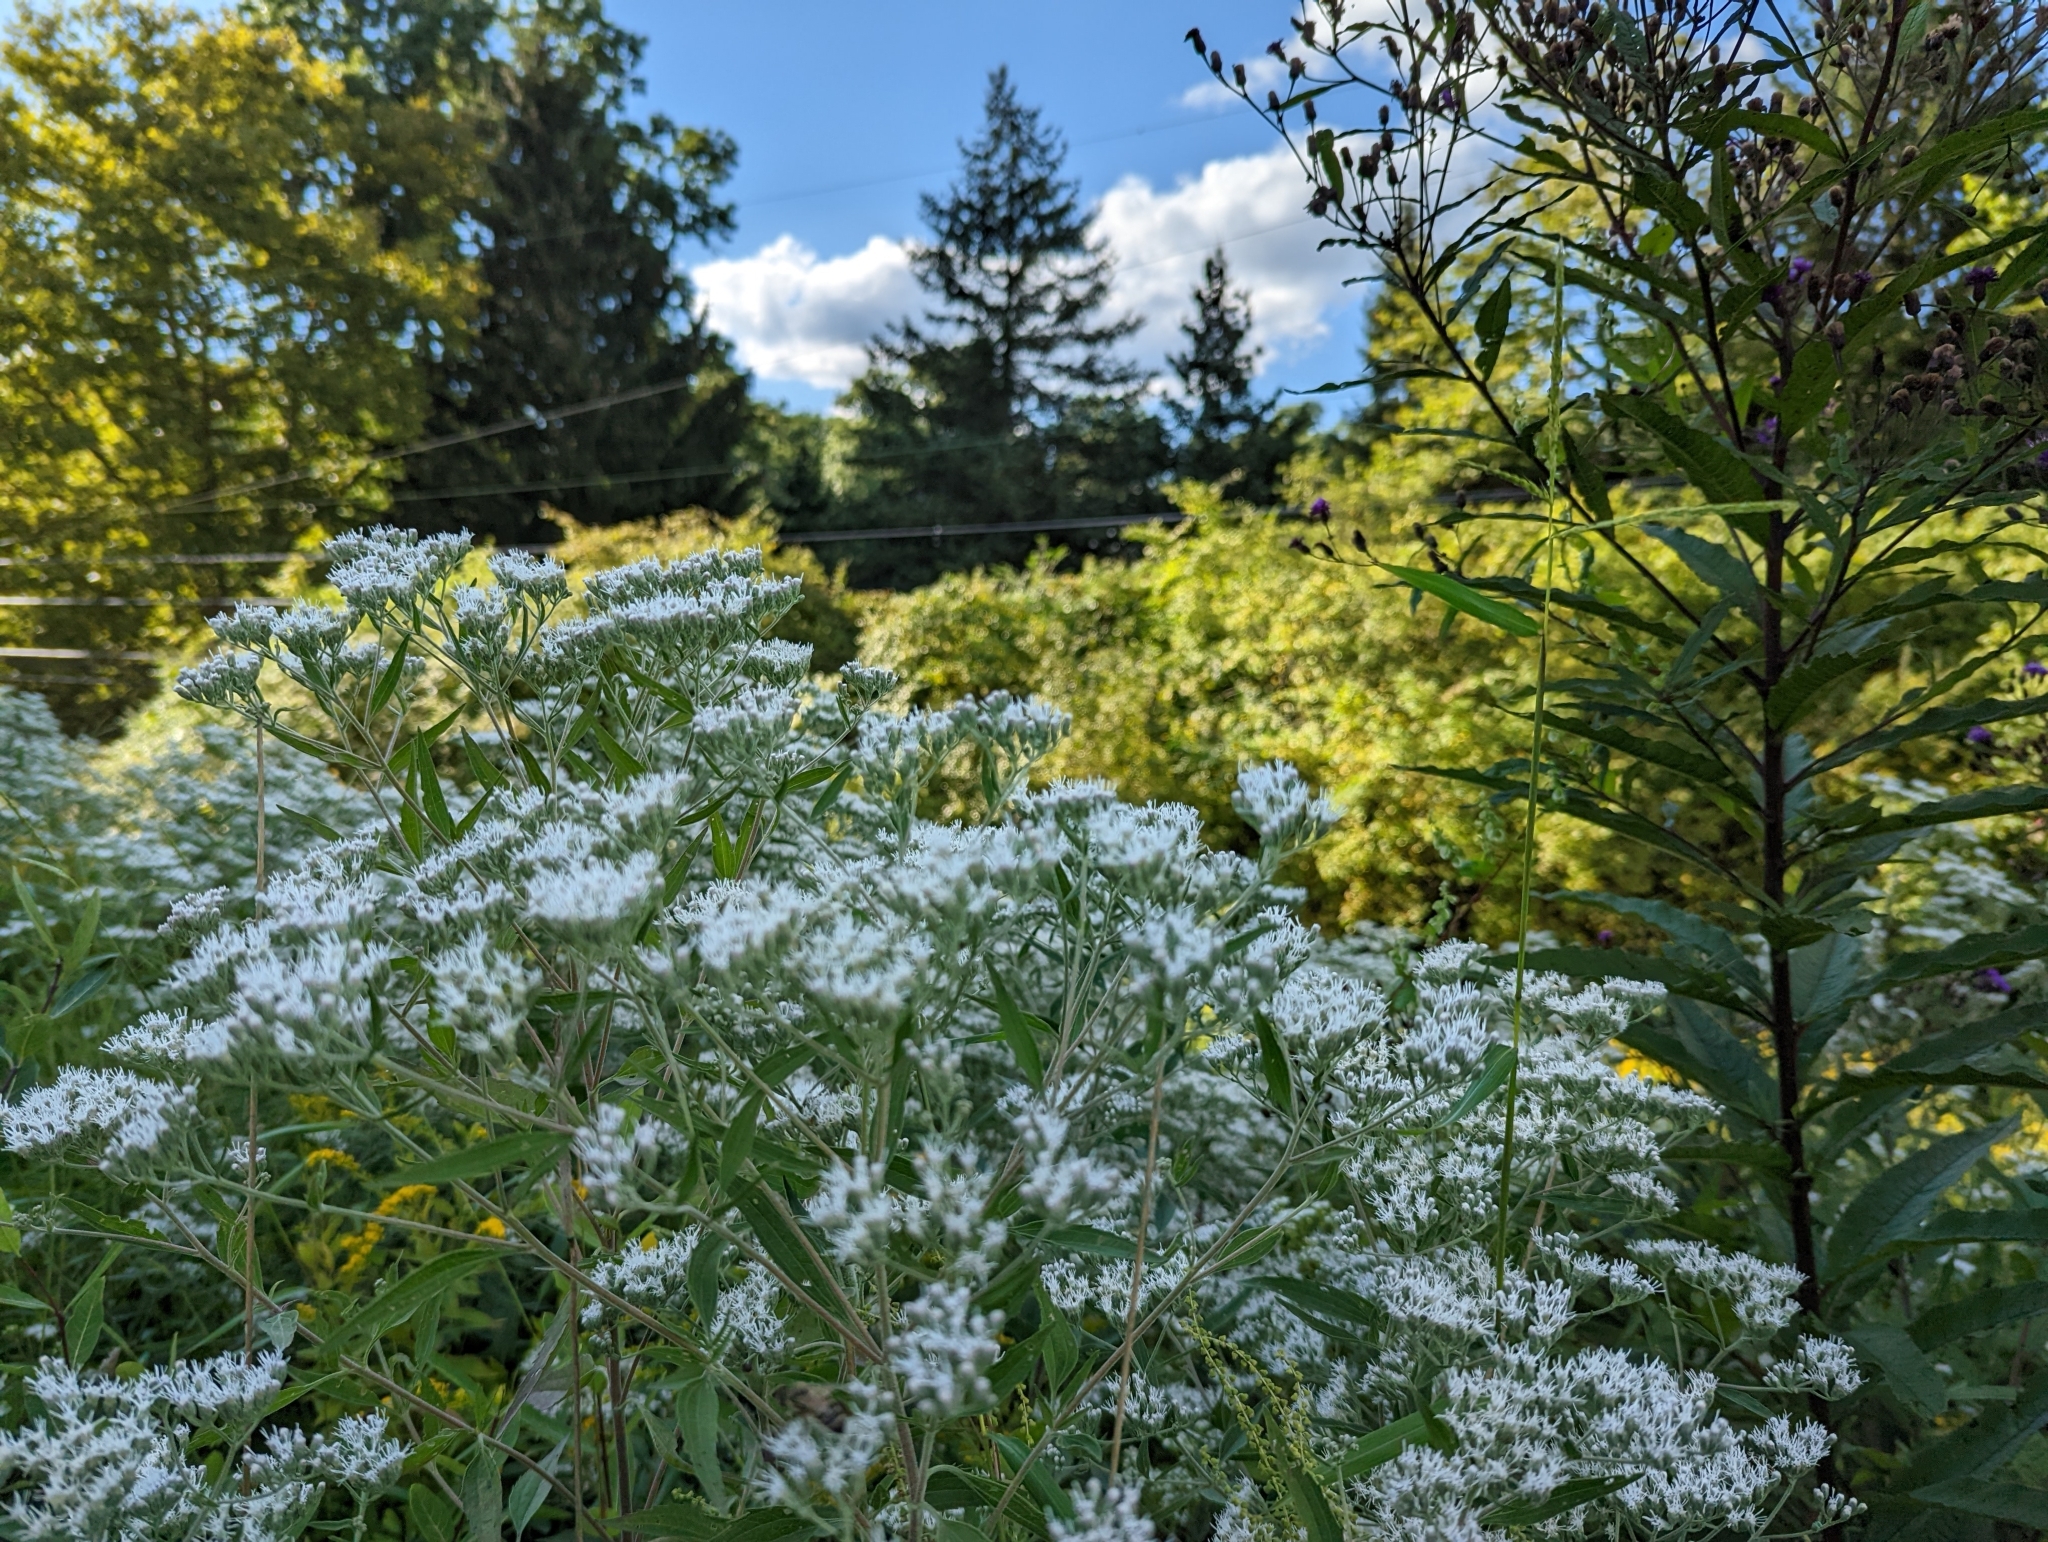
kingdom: Plantae
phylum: Tracheophyta
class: Magnoliopsida
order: Asterales
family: Asteraceae
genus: Eupatorium
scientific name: Eupatorium serotinum
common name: Late boneset
